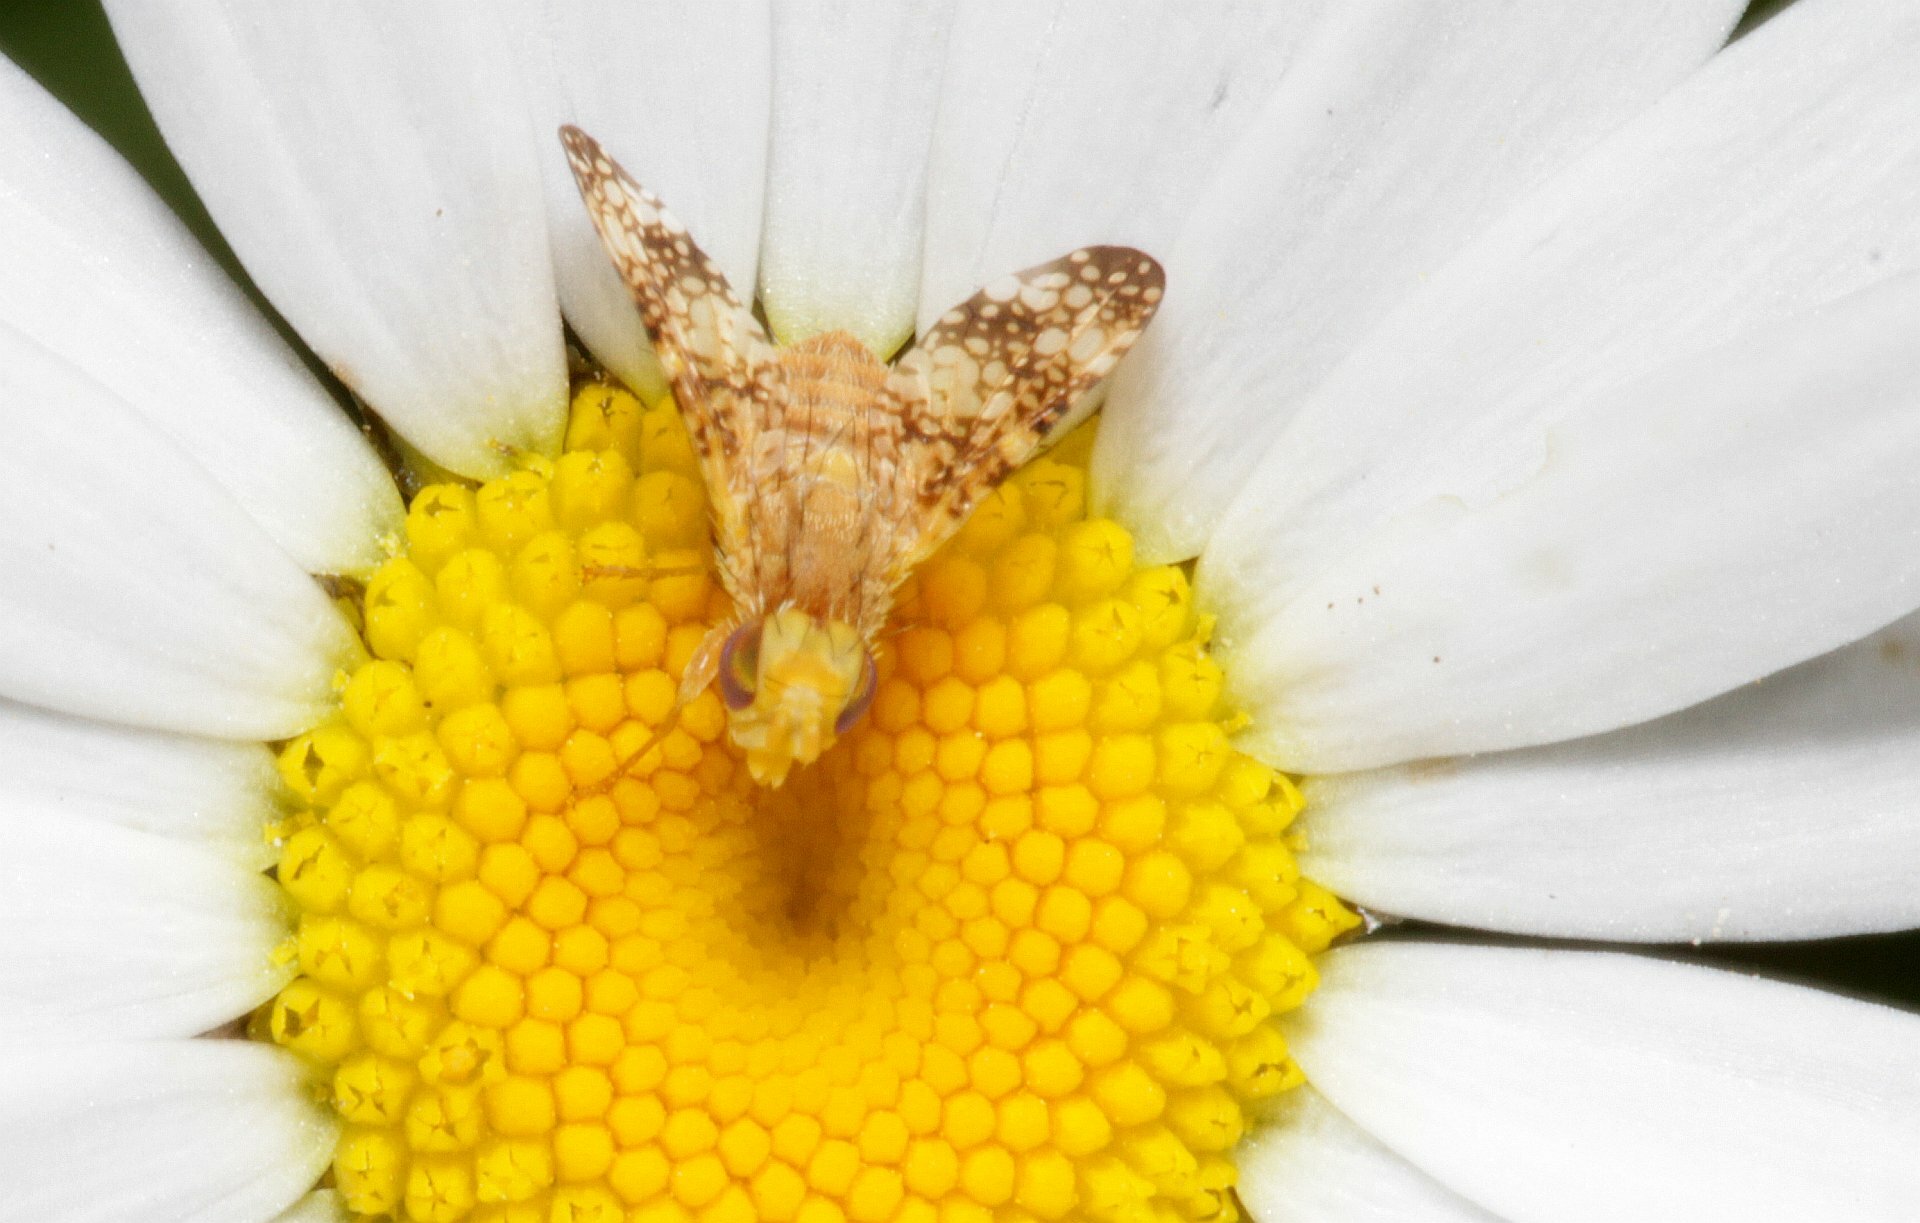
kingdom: Animalia
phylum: Arthropoda
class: Insecta
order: Diptera
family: Tephritidae
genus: Oxyna
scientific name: Oxyna flavipennis
